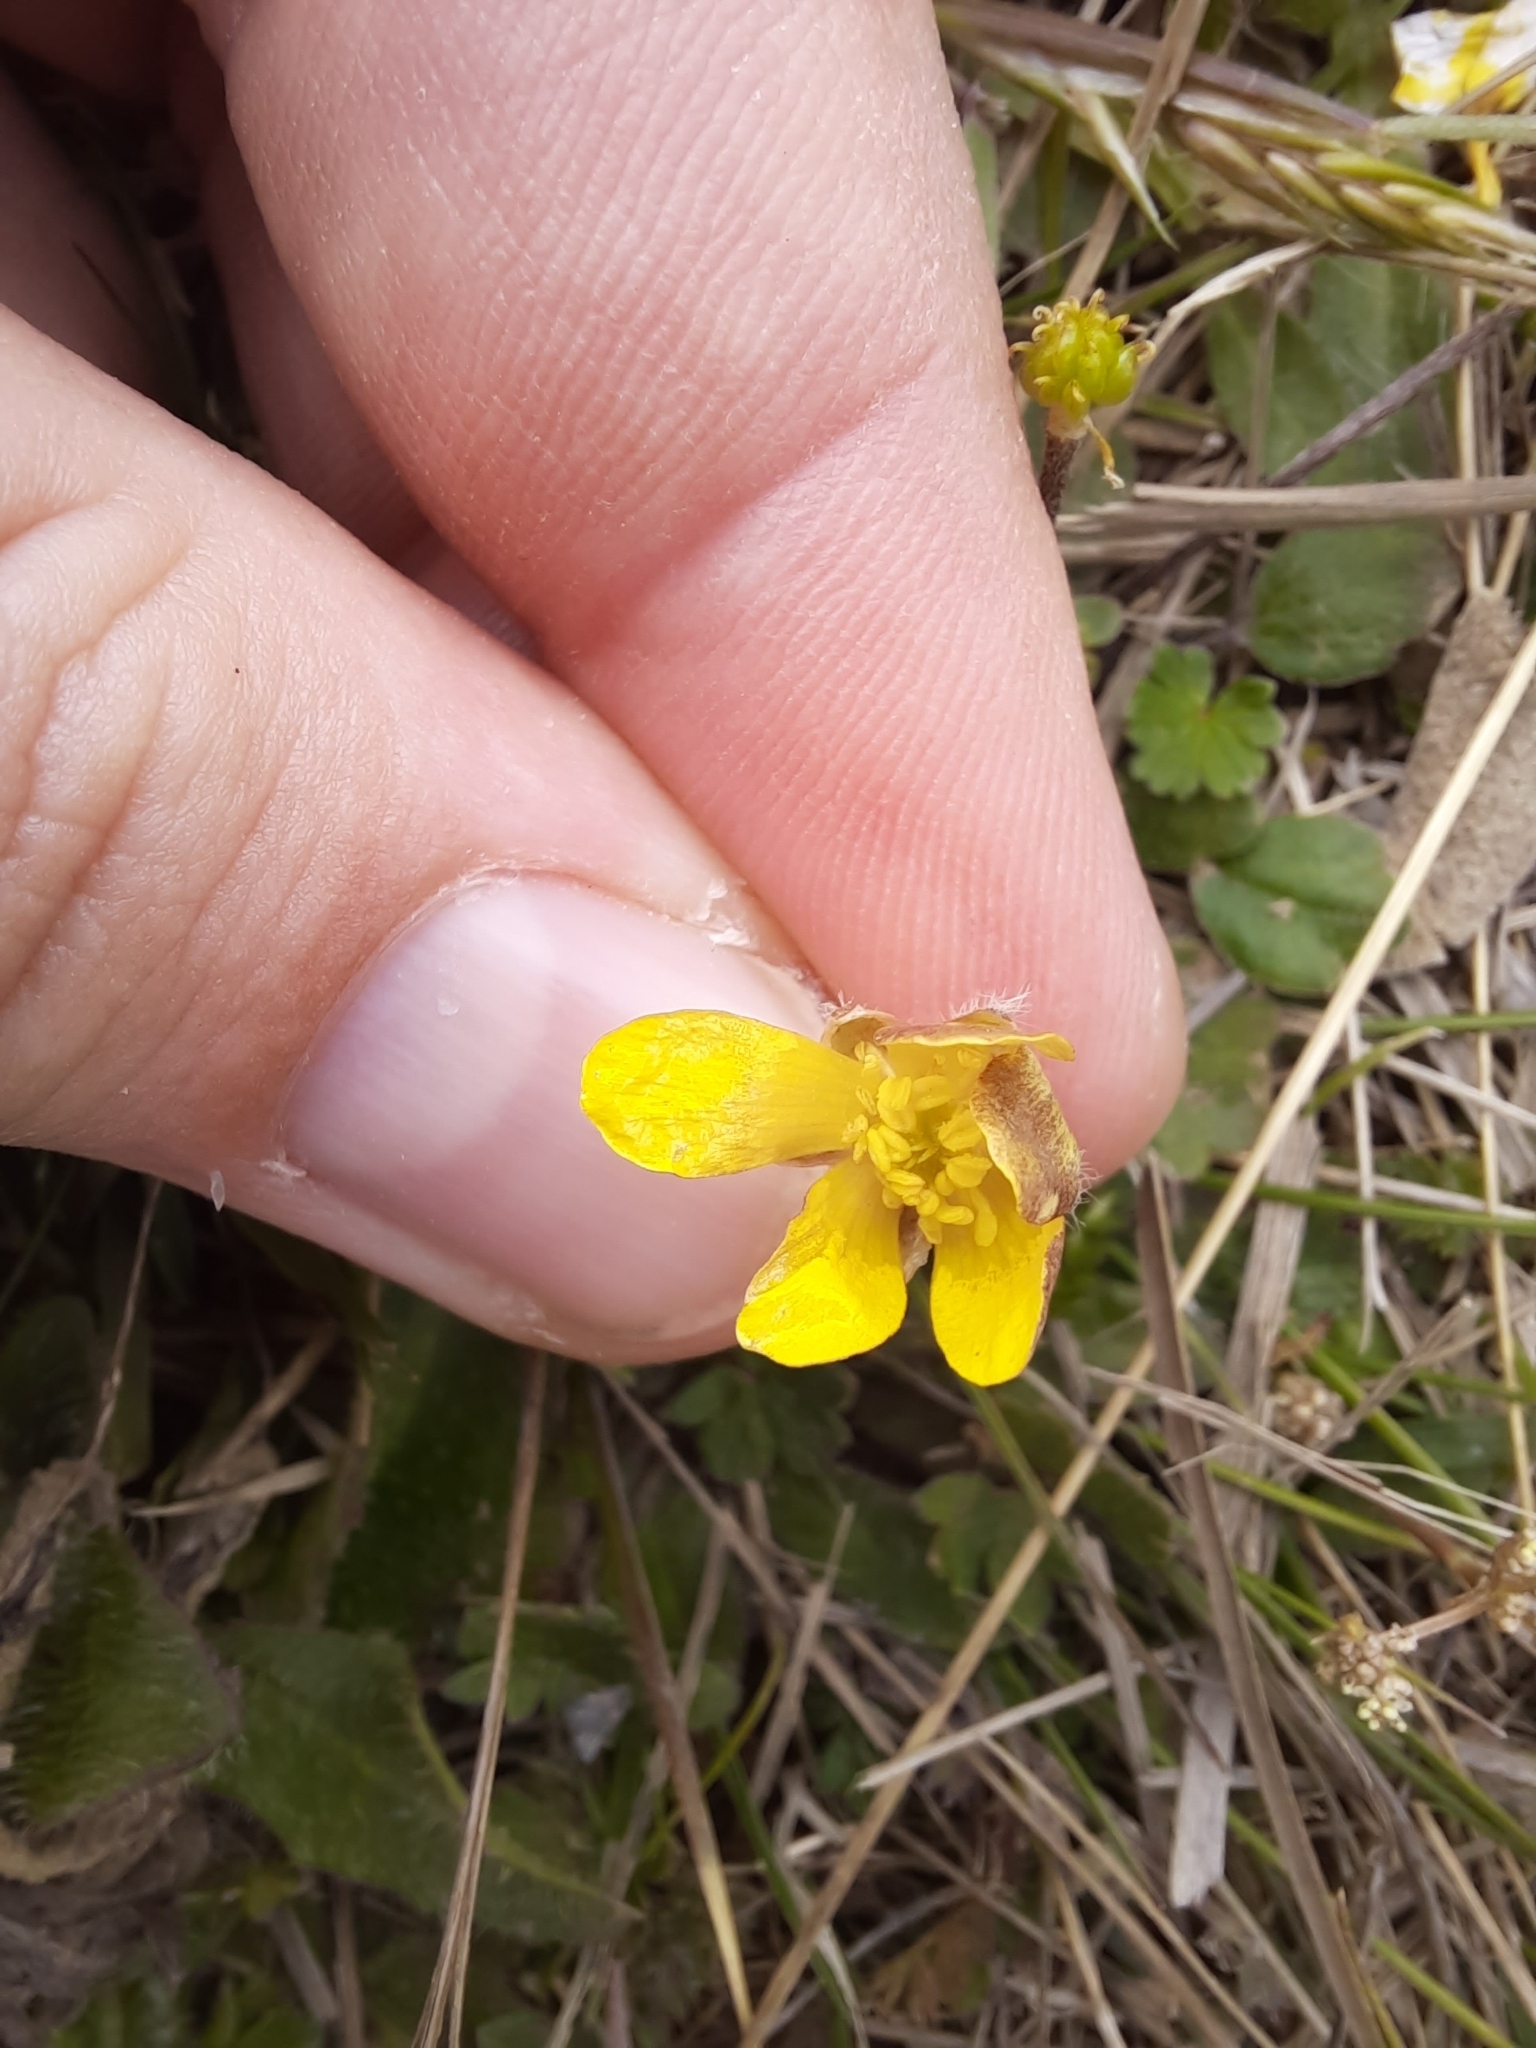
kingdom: Plantae
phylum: Tracheophyta
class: Magnoliopsida
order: Ranunculales
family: Ranunculaceae
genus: Ranunculus
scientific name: Ranunculus multiscapus
